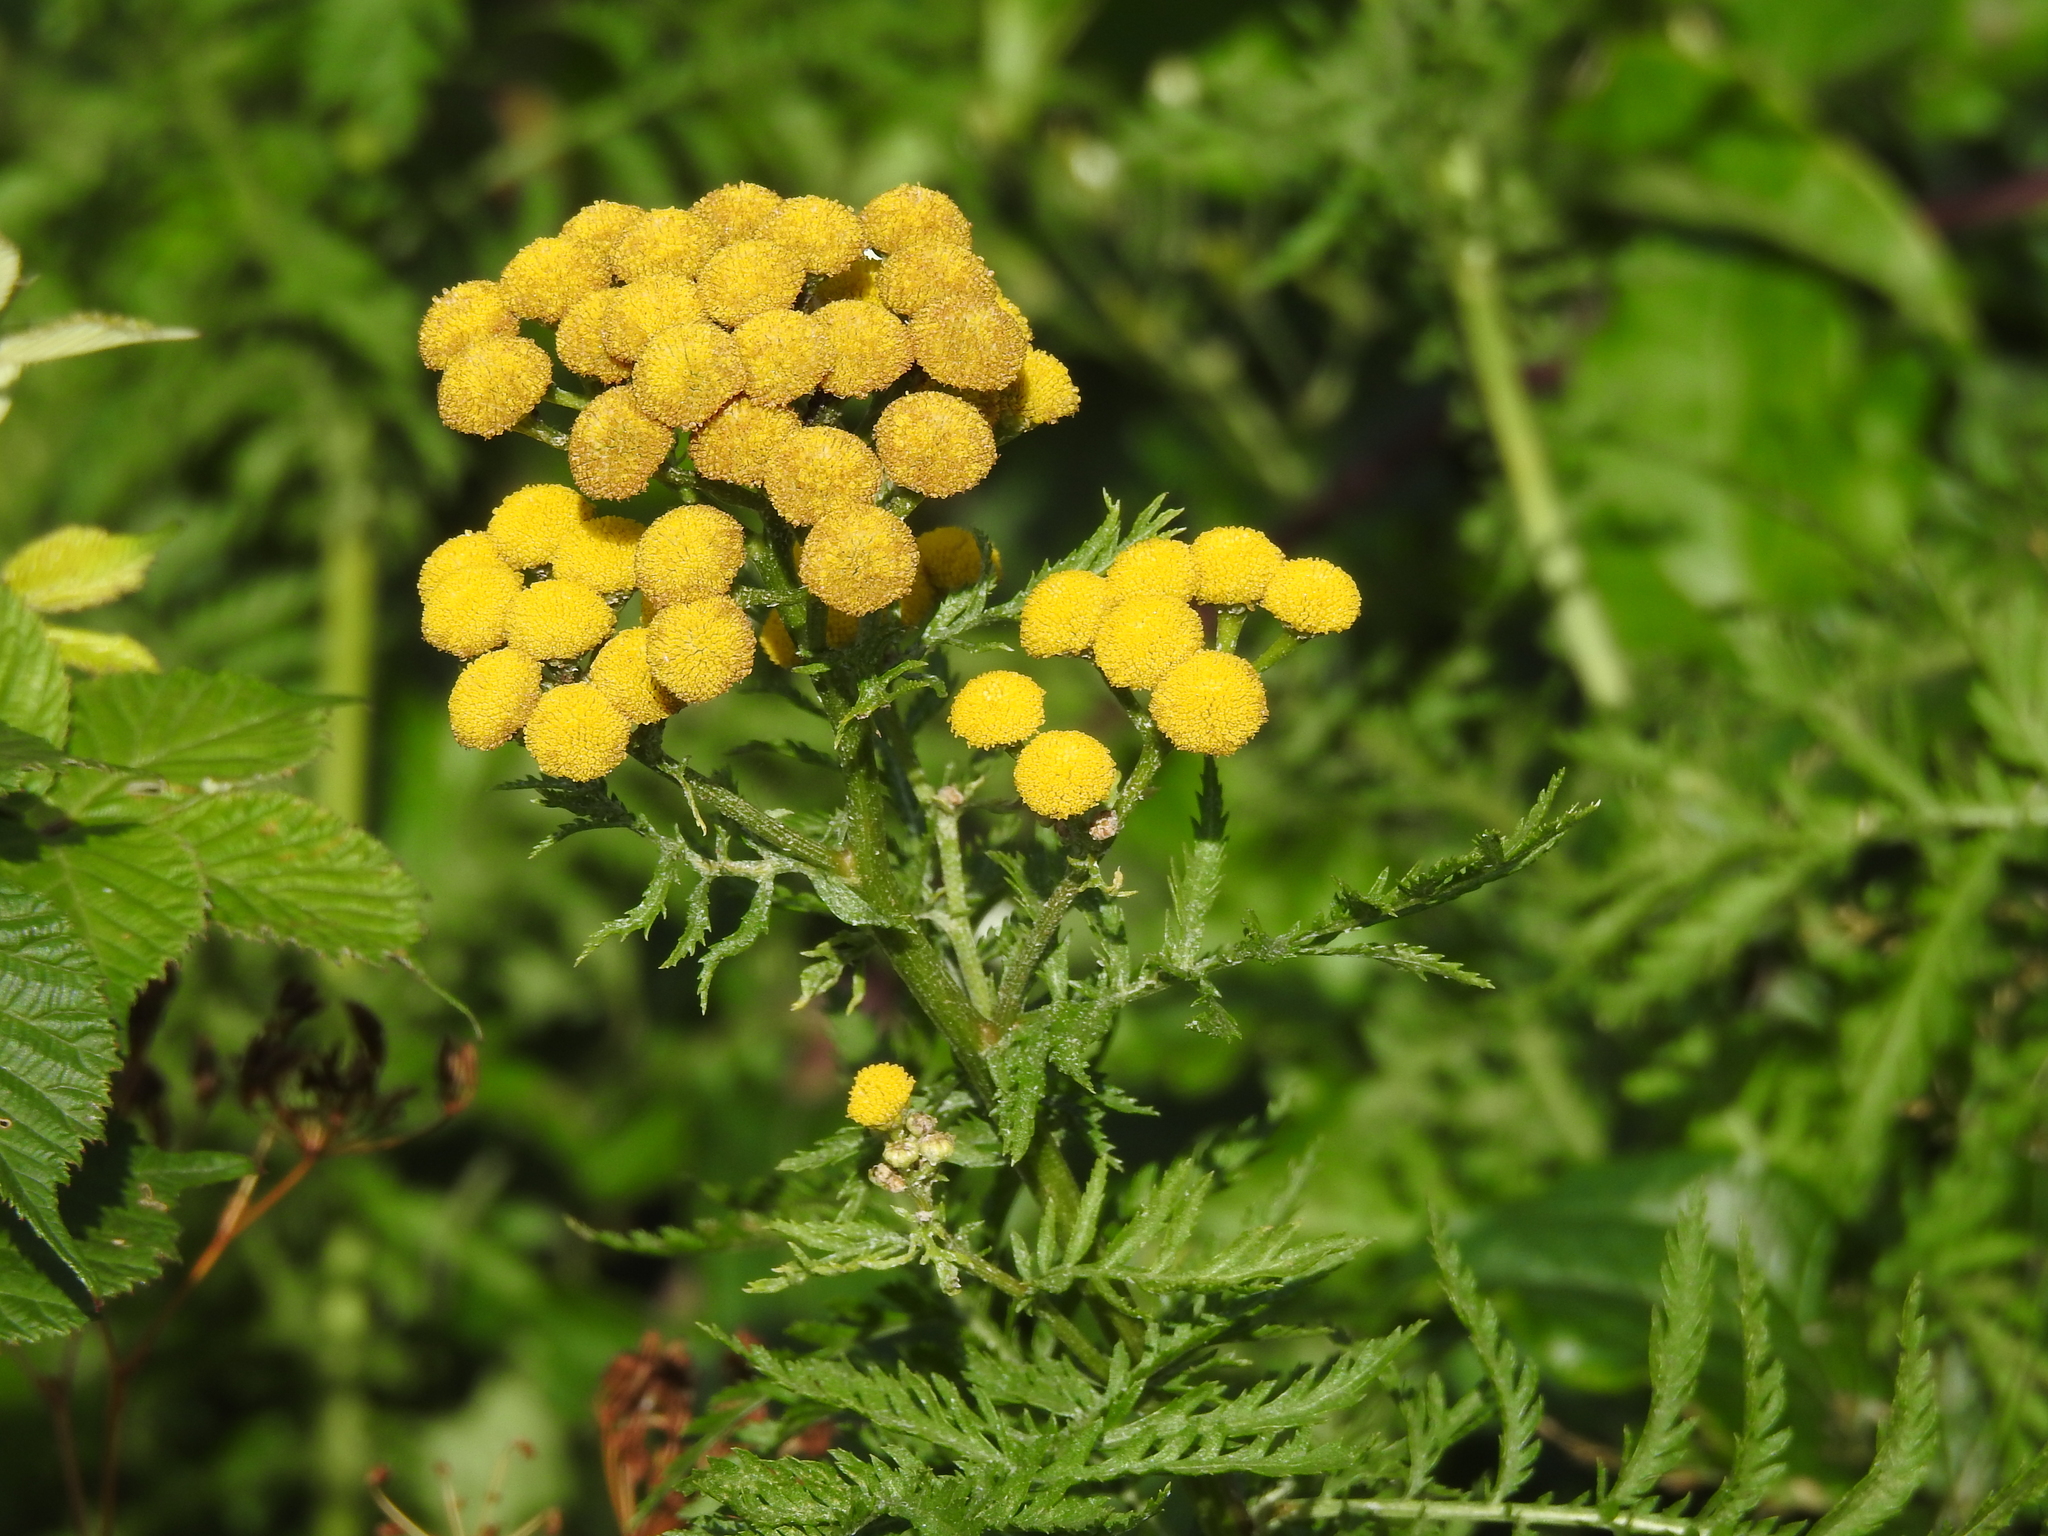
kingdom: Plantae
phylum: Tracheophyta
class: Magnoliopsida
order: Asterales
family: Asteraceae
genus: Tanacetum
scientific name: Tanacetum vulgare
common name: Common tansy
